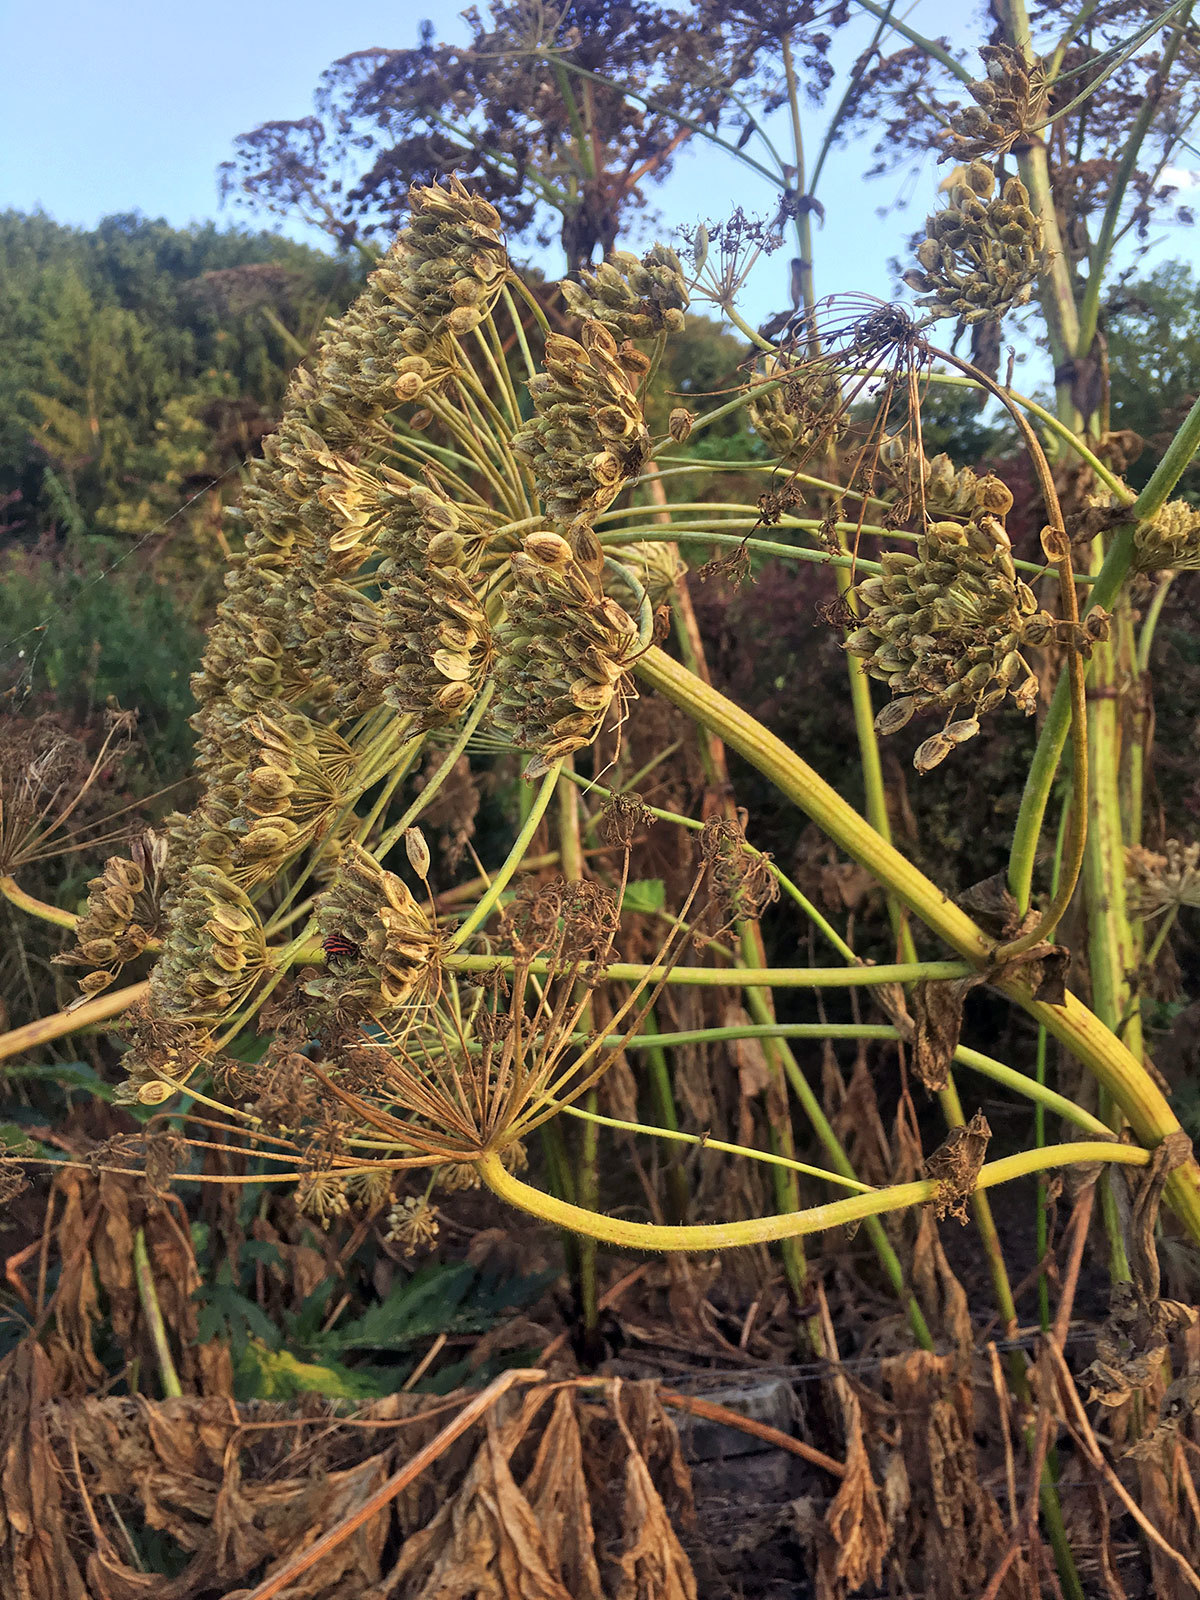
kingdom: Plantae
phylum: Tracheophyta
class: Magnoliopsida
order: Apiales
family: Apiaceae
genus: Heracleum
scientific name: Heracleum mantegazzianum
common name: Giant hogweed
